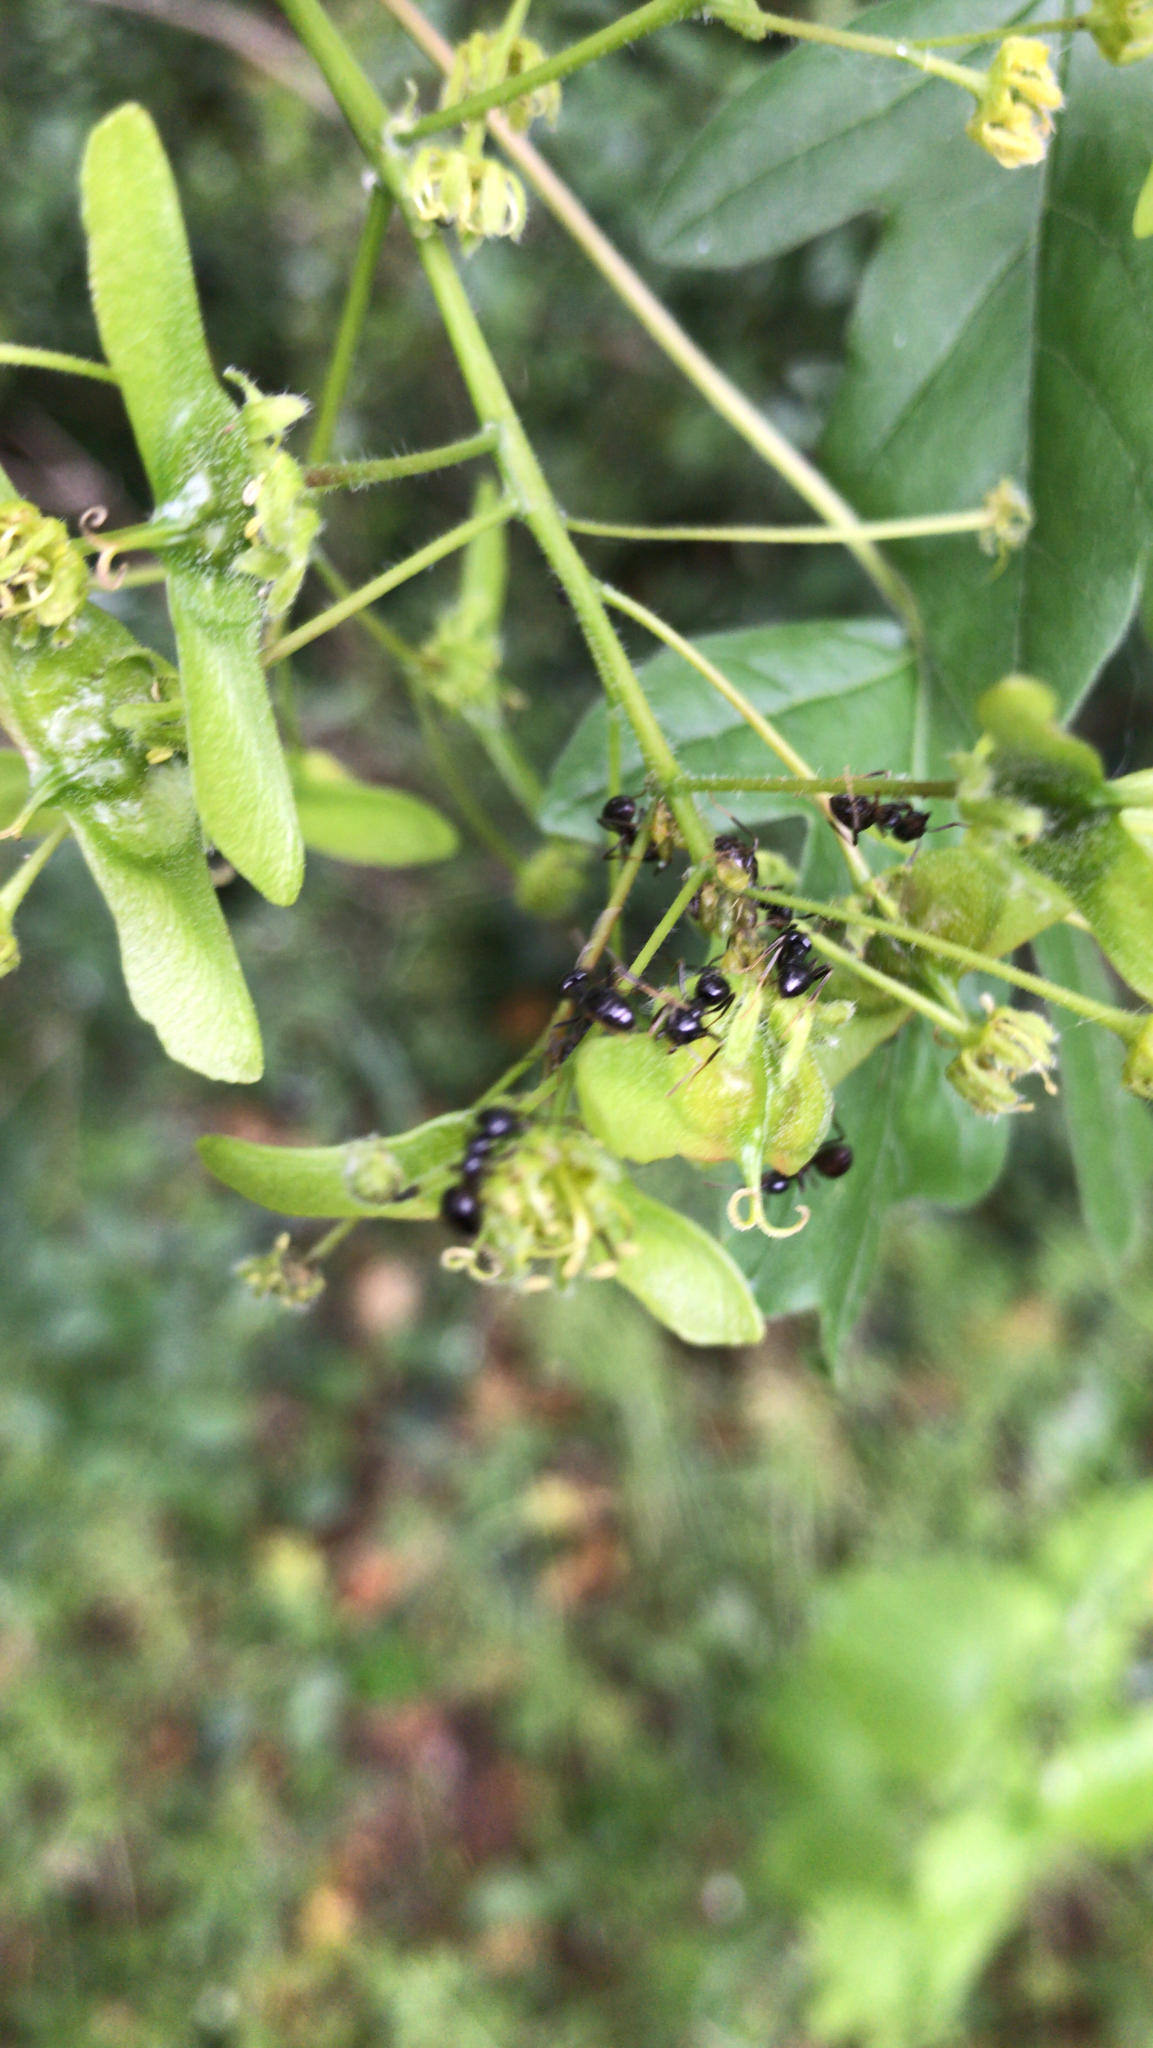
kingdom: Animalia
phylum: Arthropoda
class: Insecta
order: Hymenoptera
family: Formicidae
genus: Lasius
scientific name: Lasius fuliginosus
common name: Jet ant
